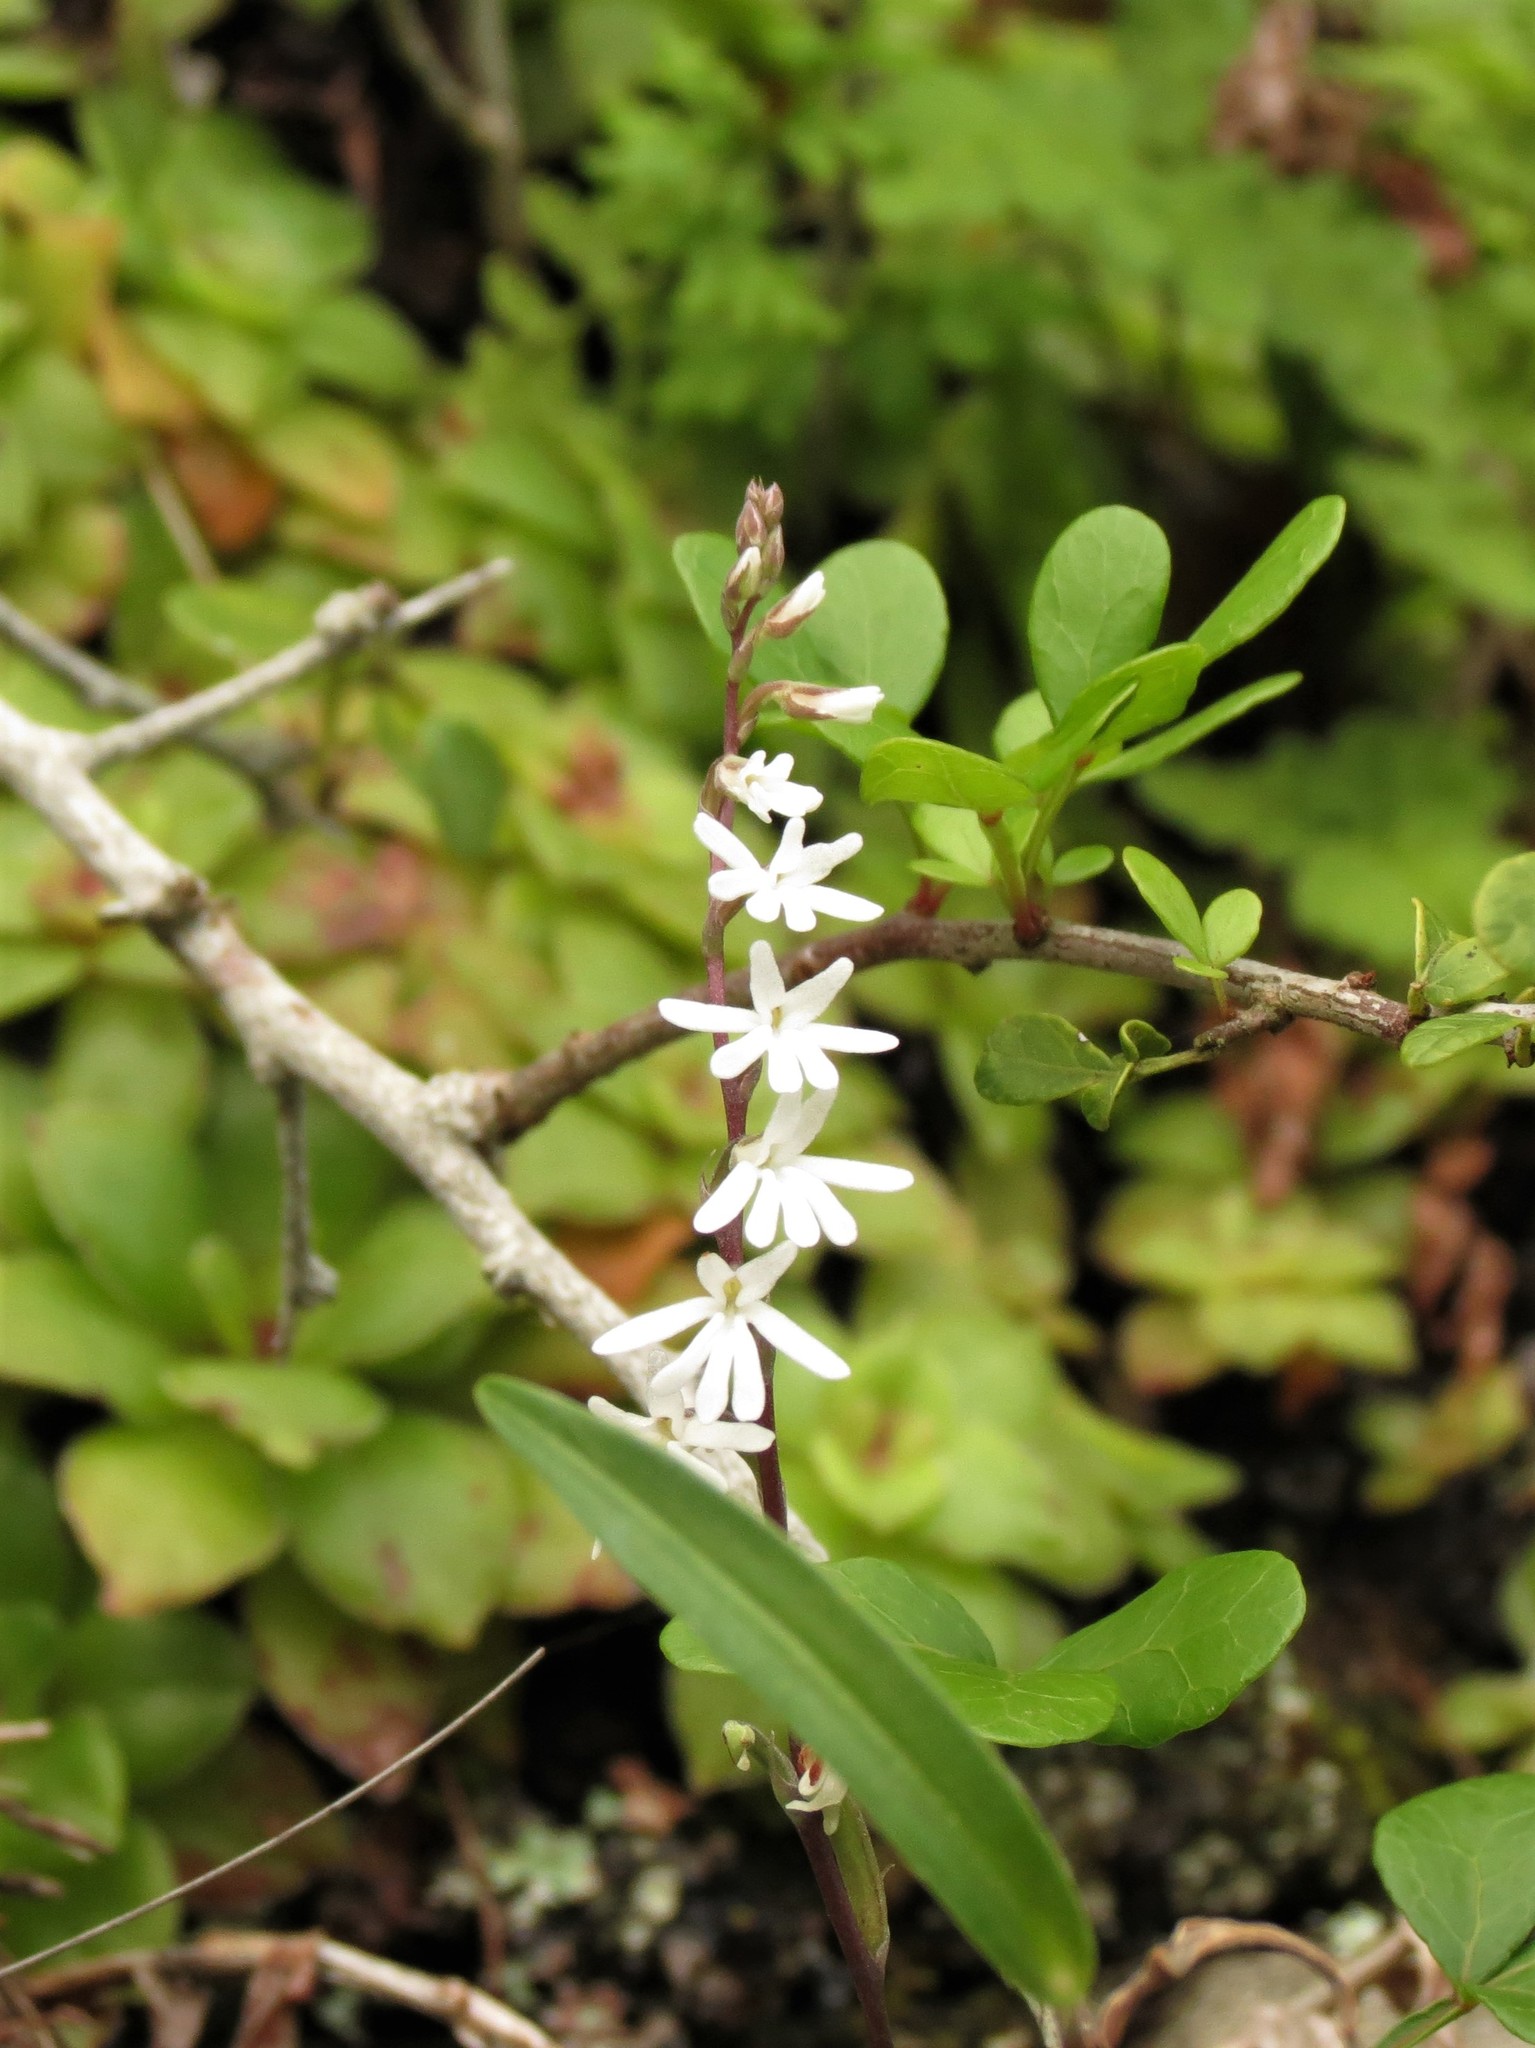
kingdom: Plantae
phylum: Tracheophyta
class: Liliopsida
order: Asparagales
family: Orchidaceae
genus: Holothrix
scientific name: Holothrix parviflora
